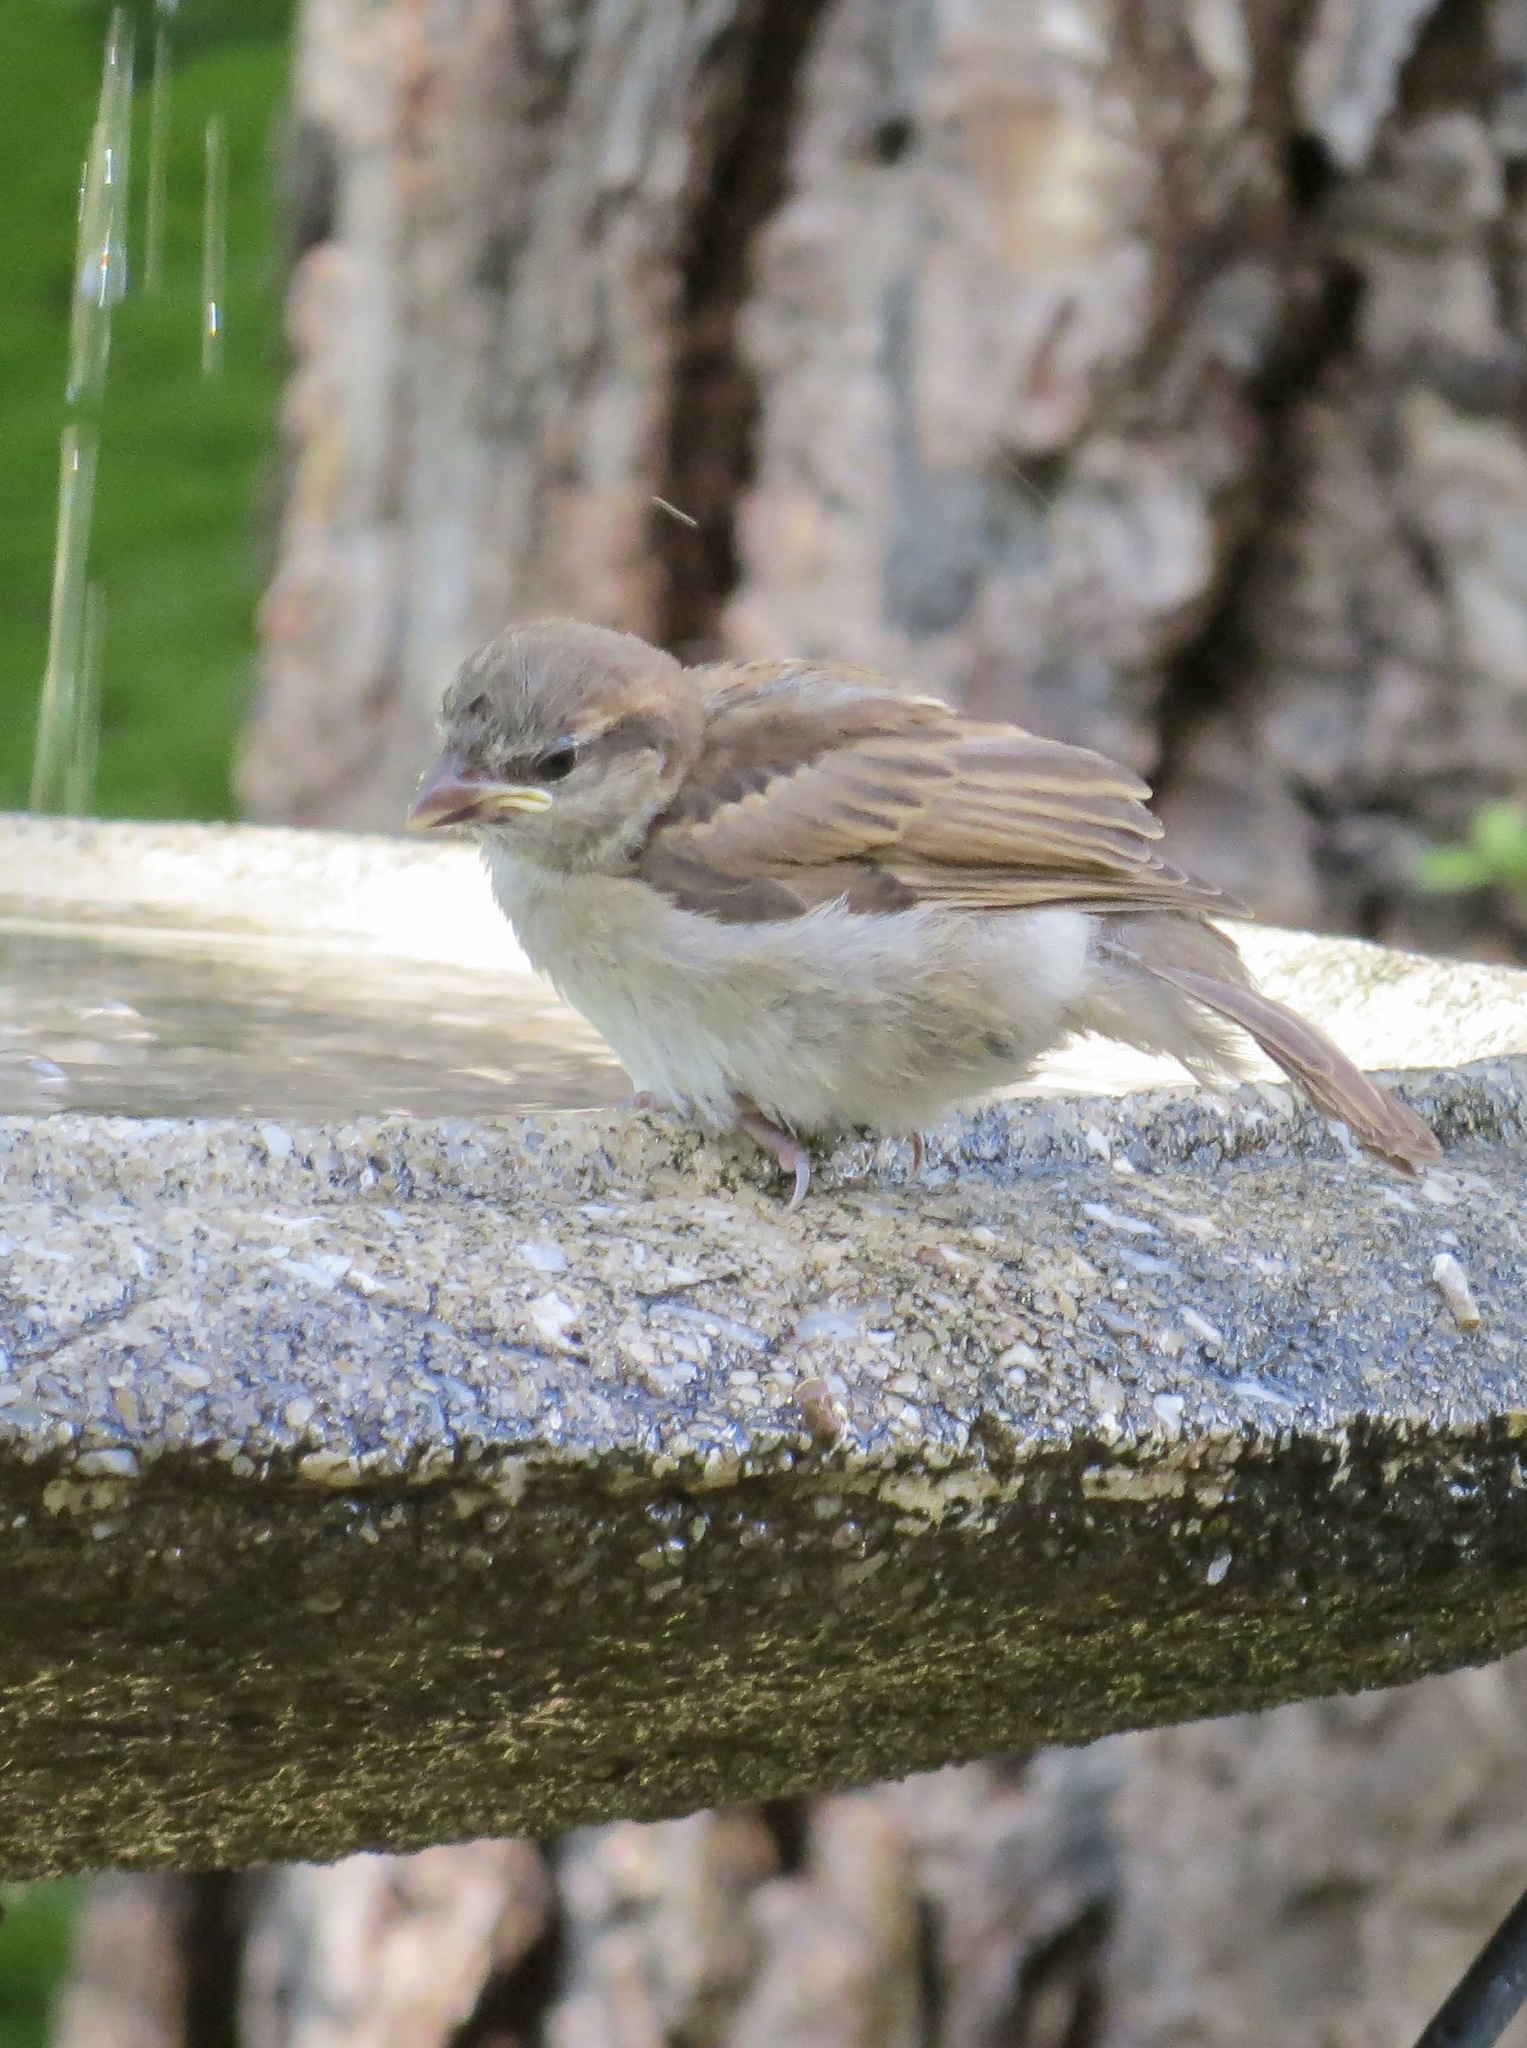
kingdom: Animalia
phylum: Chordata
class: Aves
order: Passeriformes
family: Passeridae
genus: Passer
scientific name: Passer domesticus
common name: House sparrow
